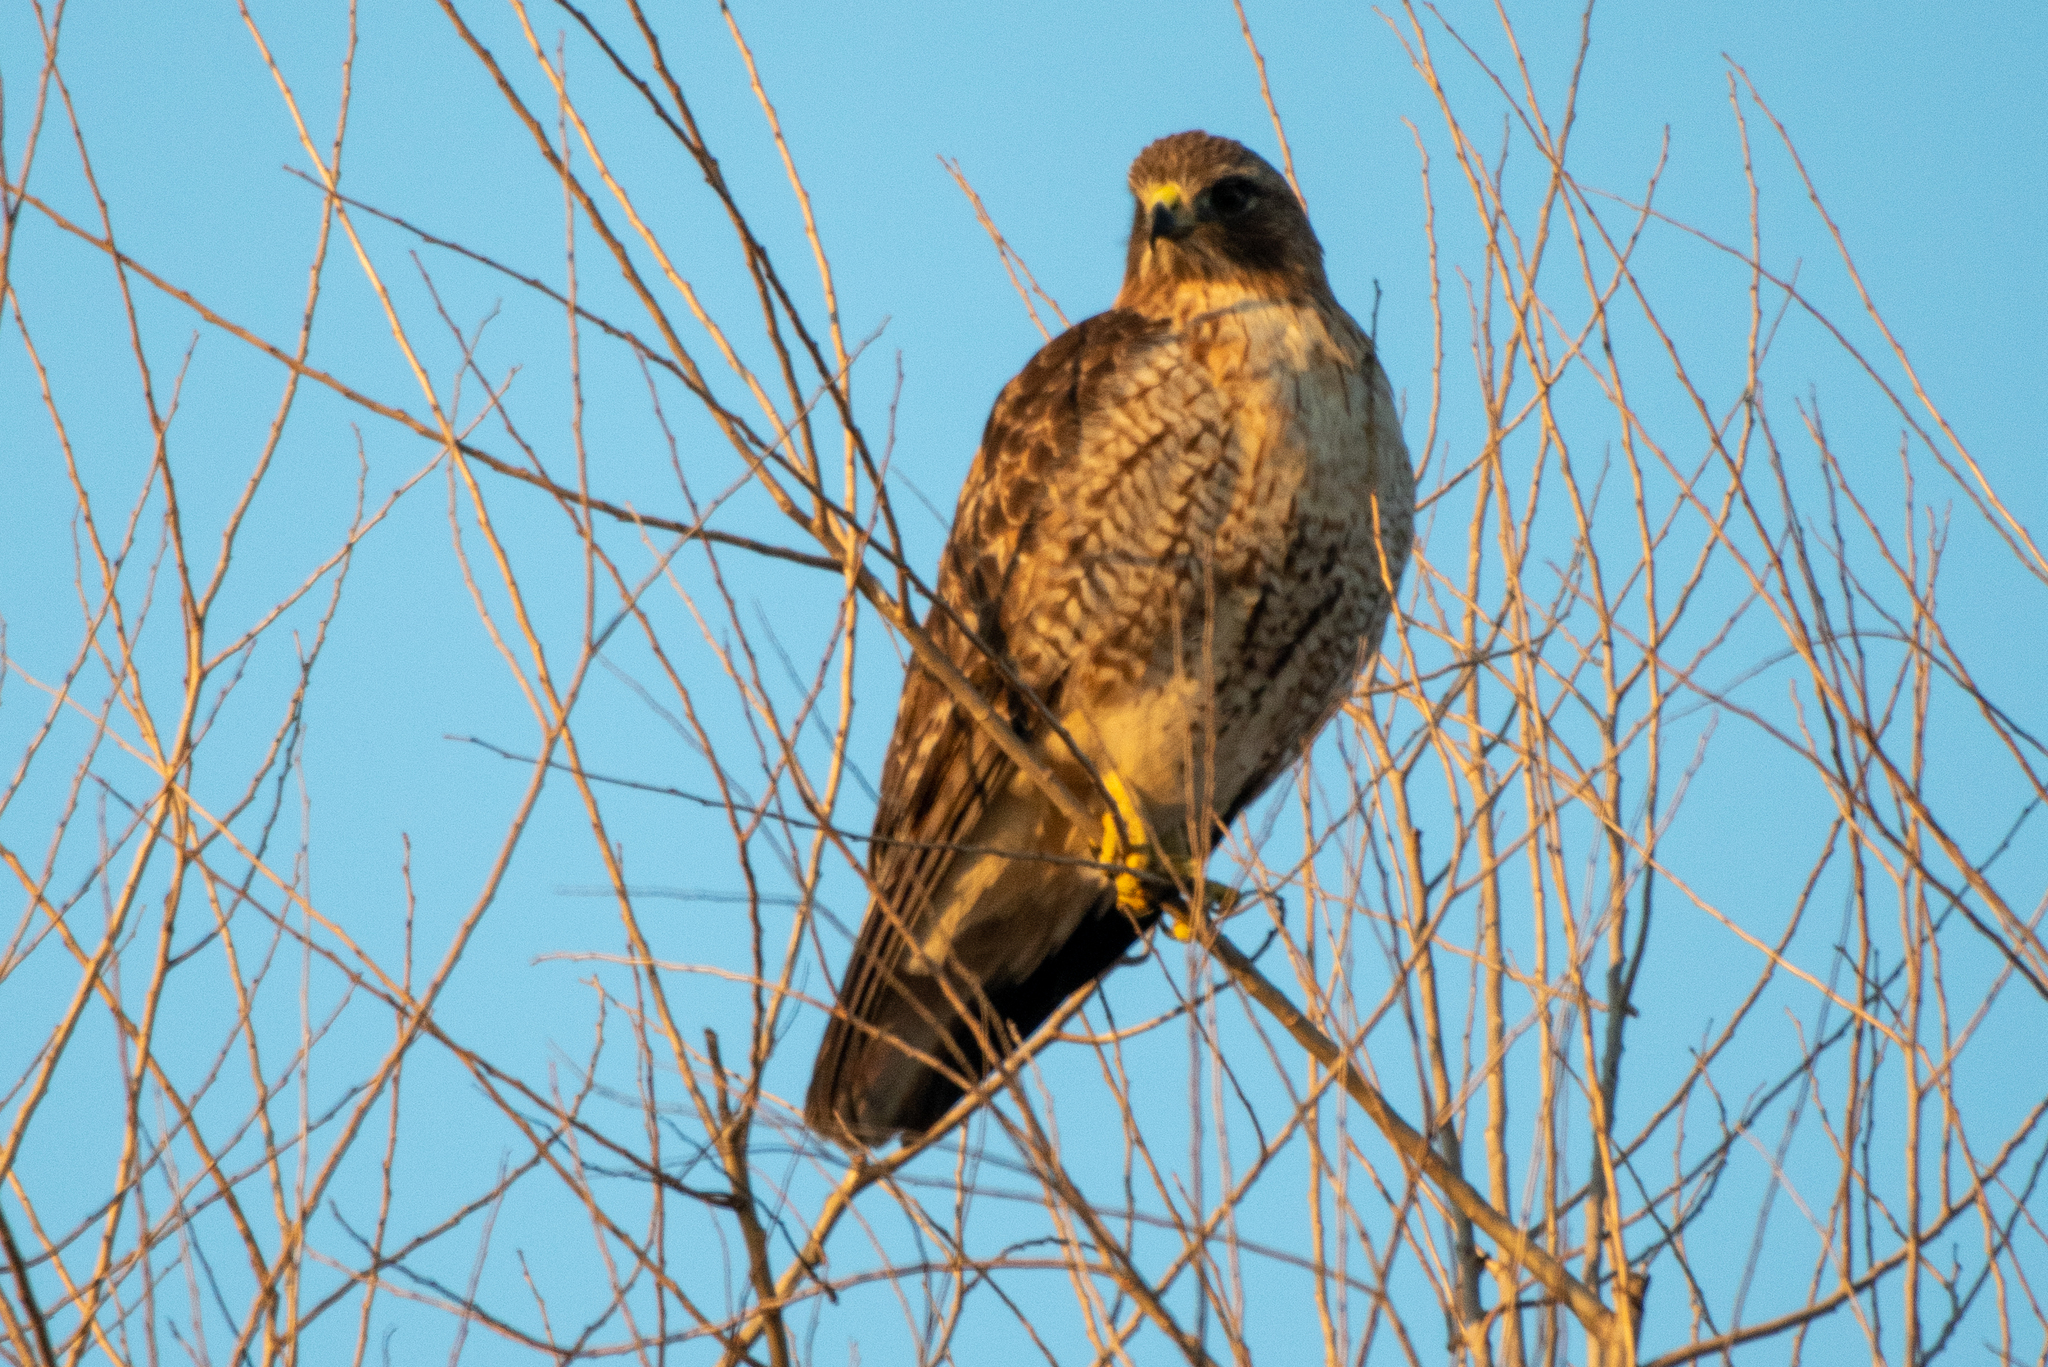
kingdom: Animalia
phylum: Chordata
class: Aves
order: Accipitriformes
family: Accipitridae
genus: Buteo
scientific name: Buteo jamaicensis
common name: Red-tailed hawk
